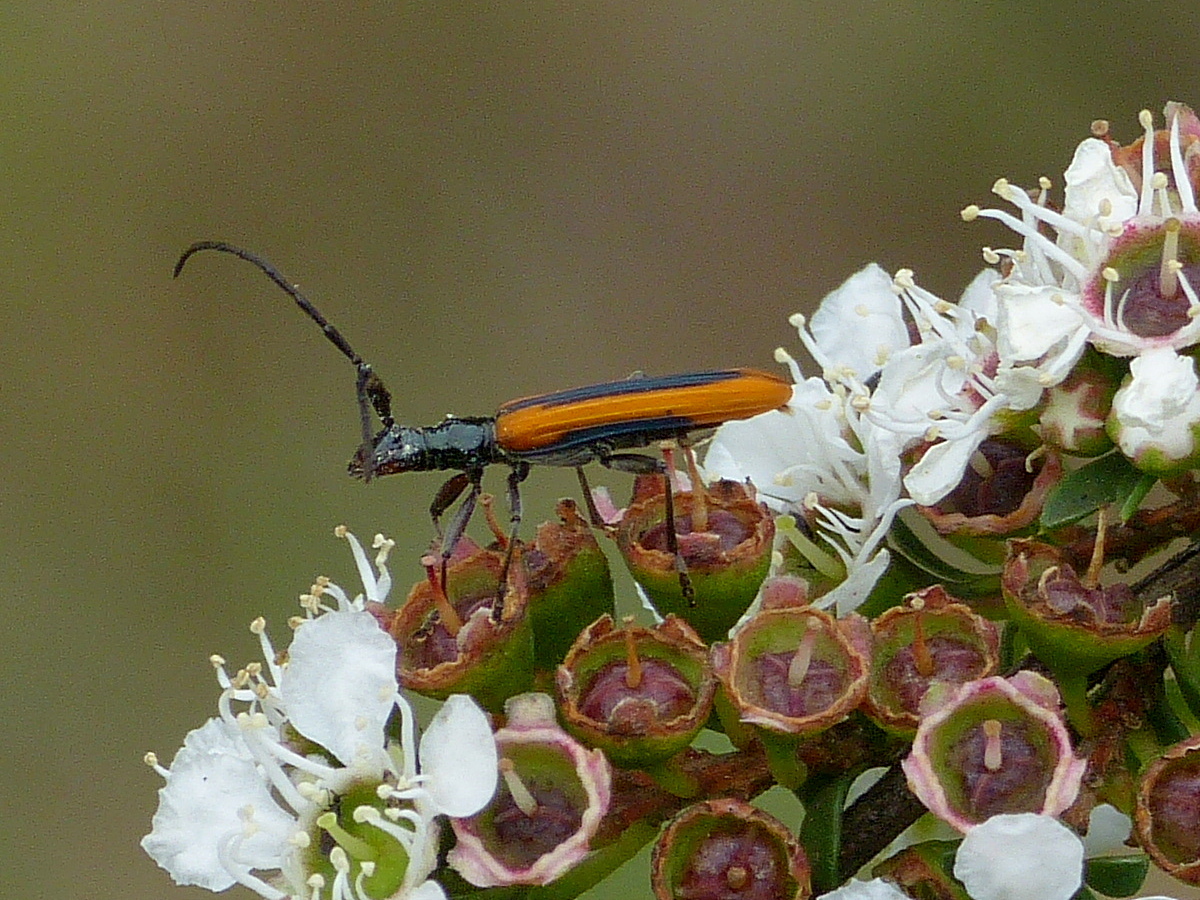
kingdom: Animalia
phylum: Arthropoda
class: Insecta
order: Coleoptera
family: Cerambycidae
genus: Stenoderus
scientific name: Stenoderus suturalis
